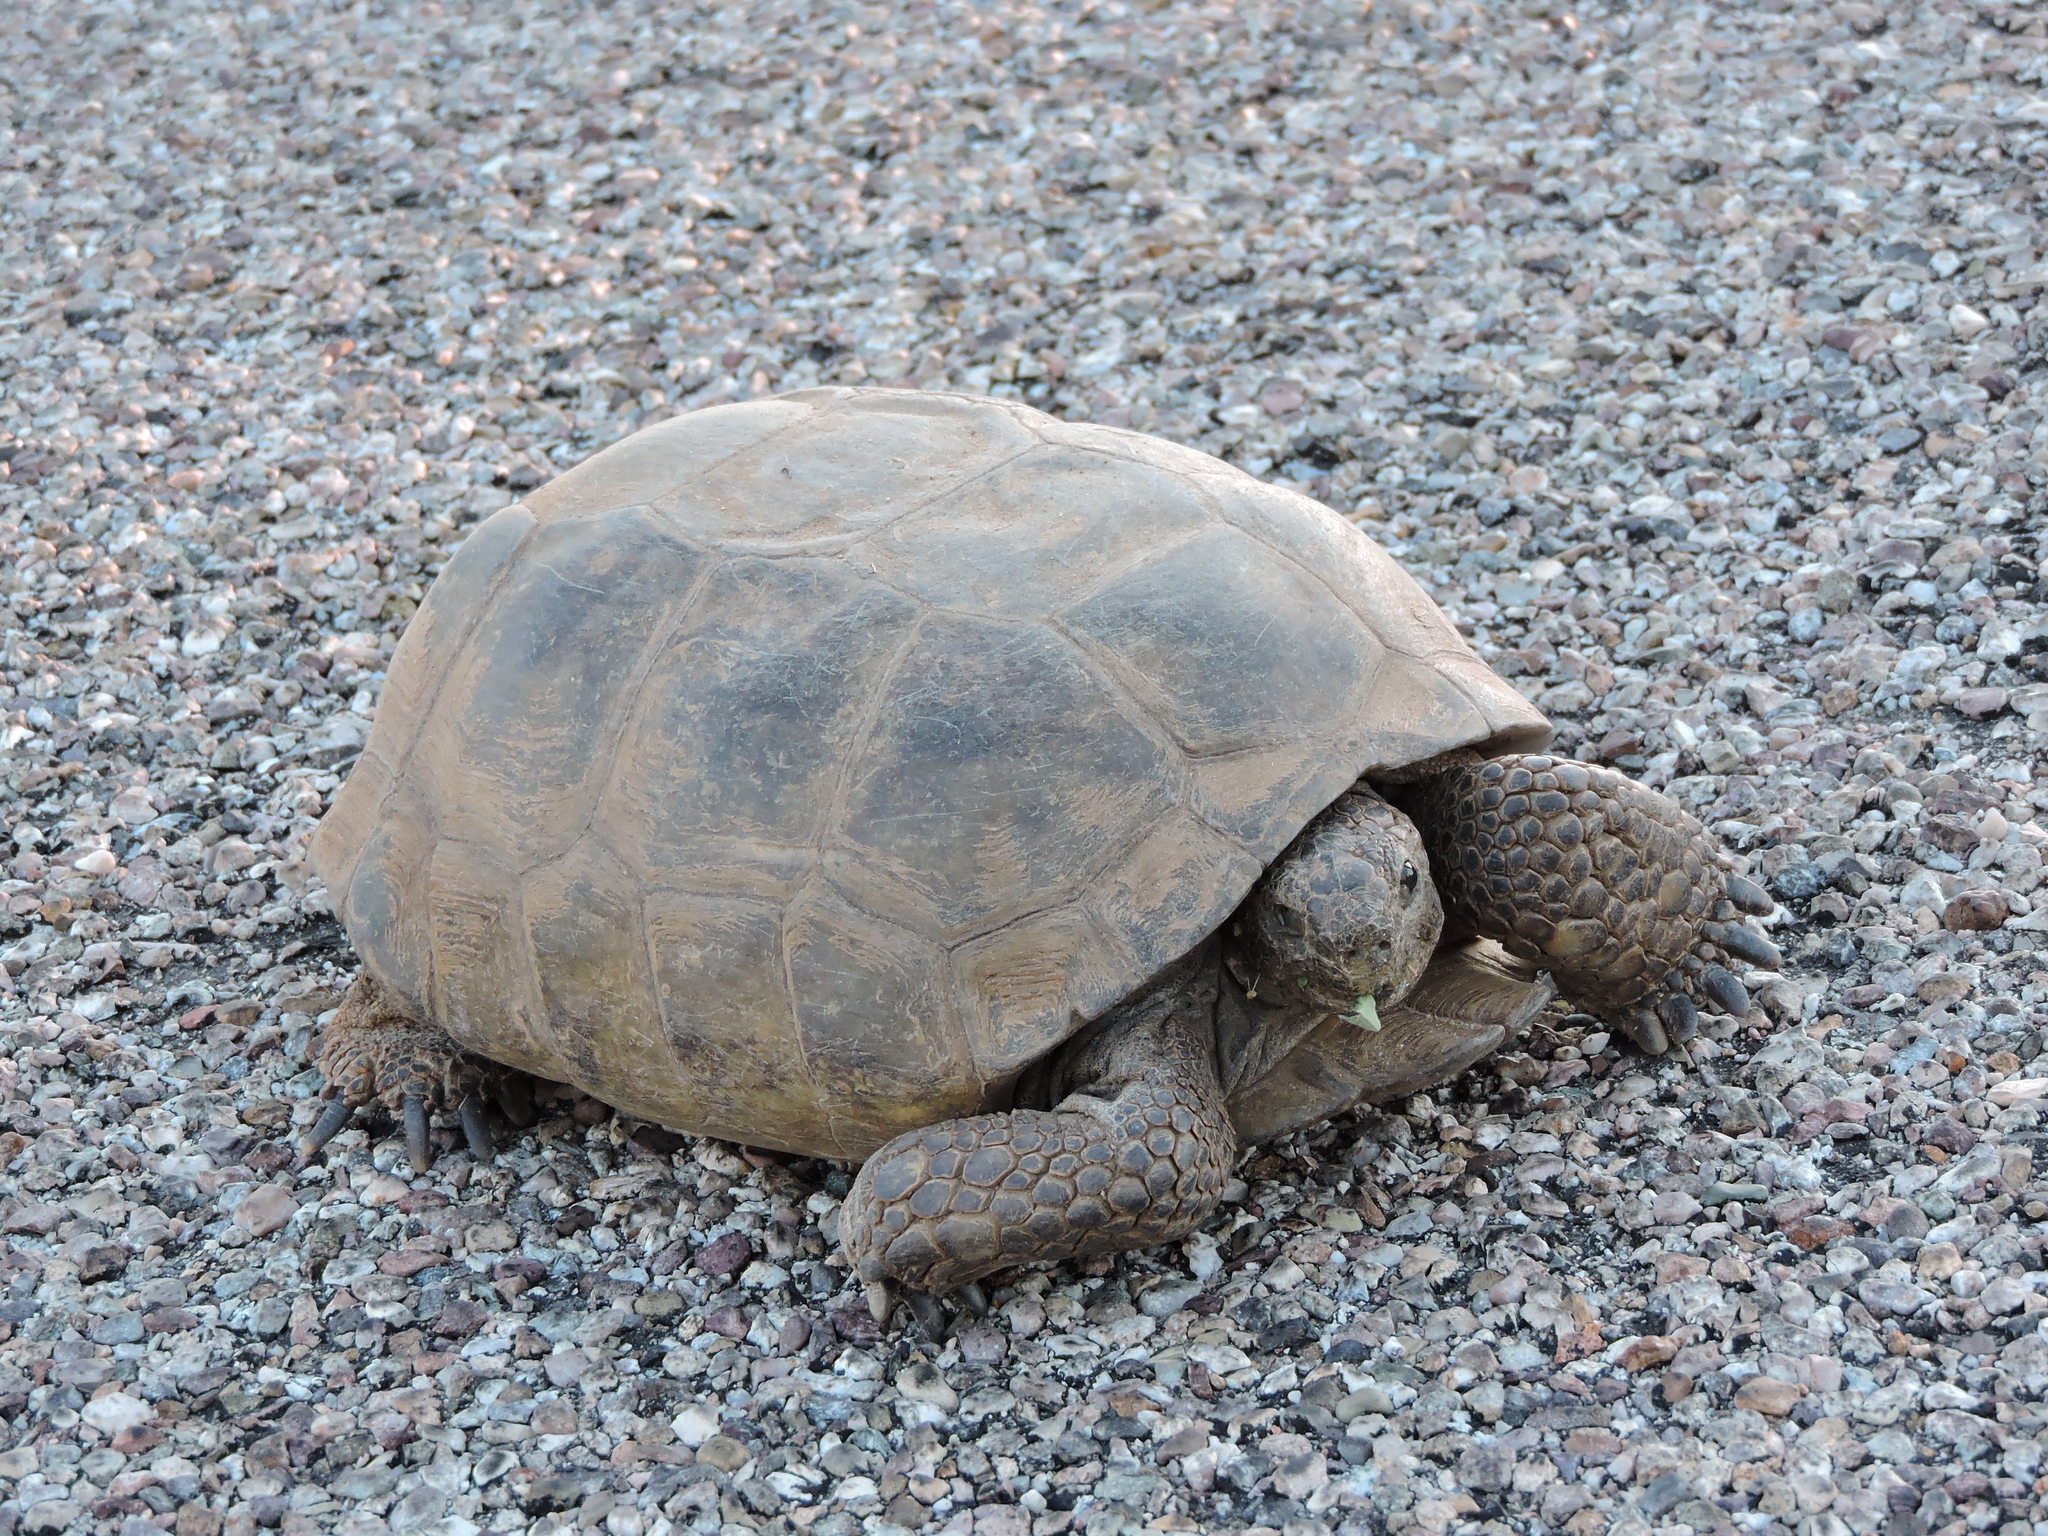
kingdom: Animalia
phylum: Chordata
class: Testudines
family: Testudinidae
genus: Gopherus
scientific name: Gopherus morafkai
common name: Sonoran desert tortoise
